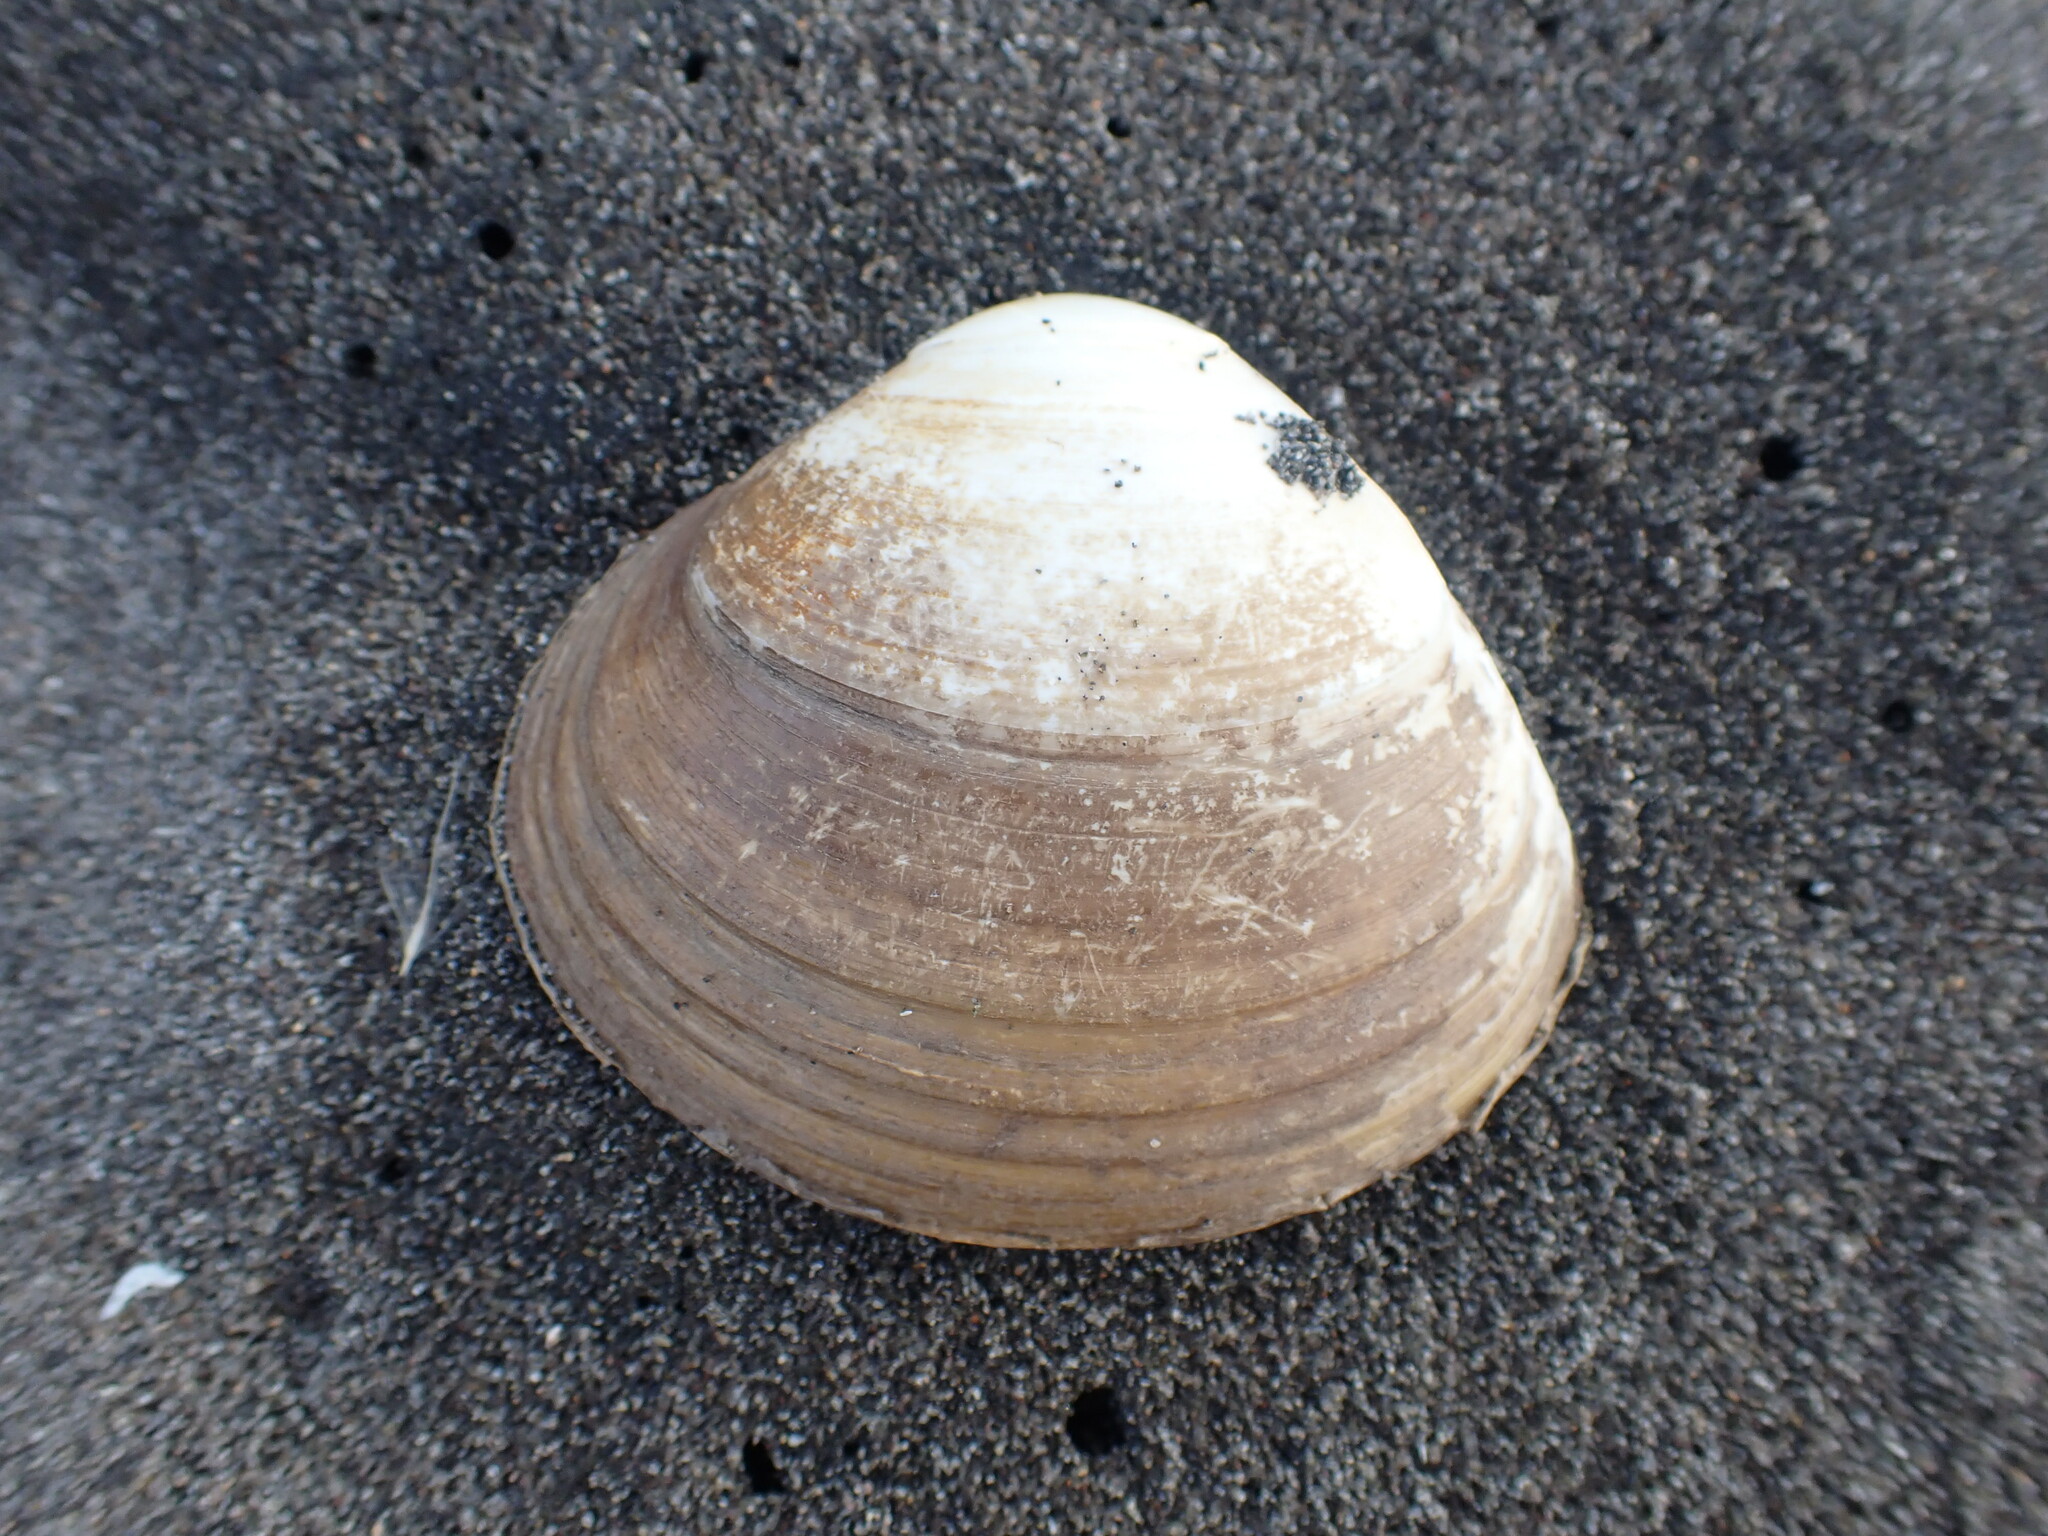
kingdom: Animalia
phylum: Mollusca
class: Bivalvia
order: Venerida
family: Mactridae
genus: Spisula
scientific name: Spisula murchisoni
